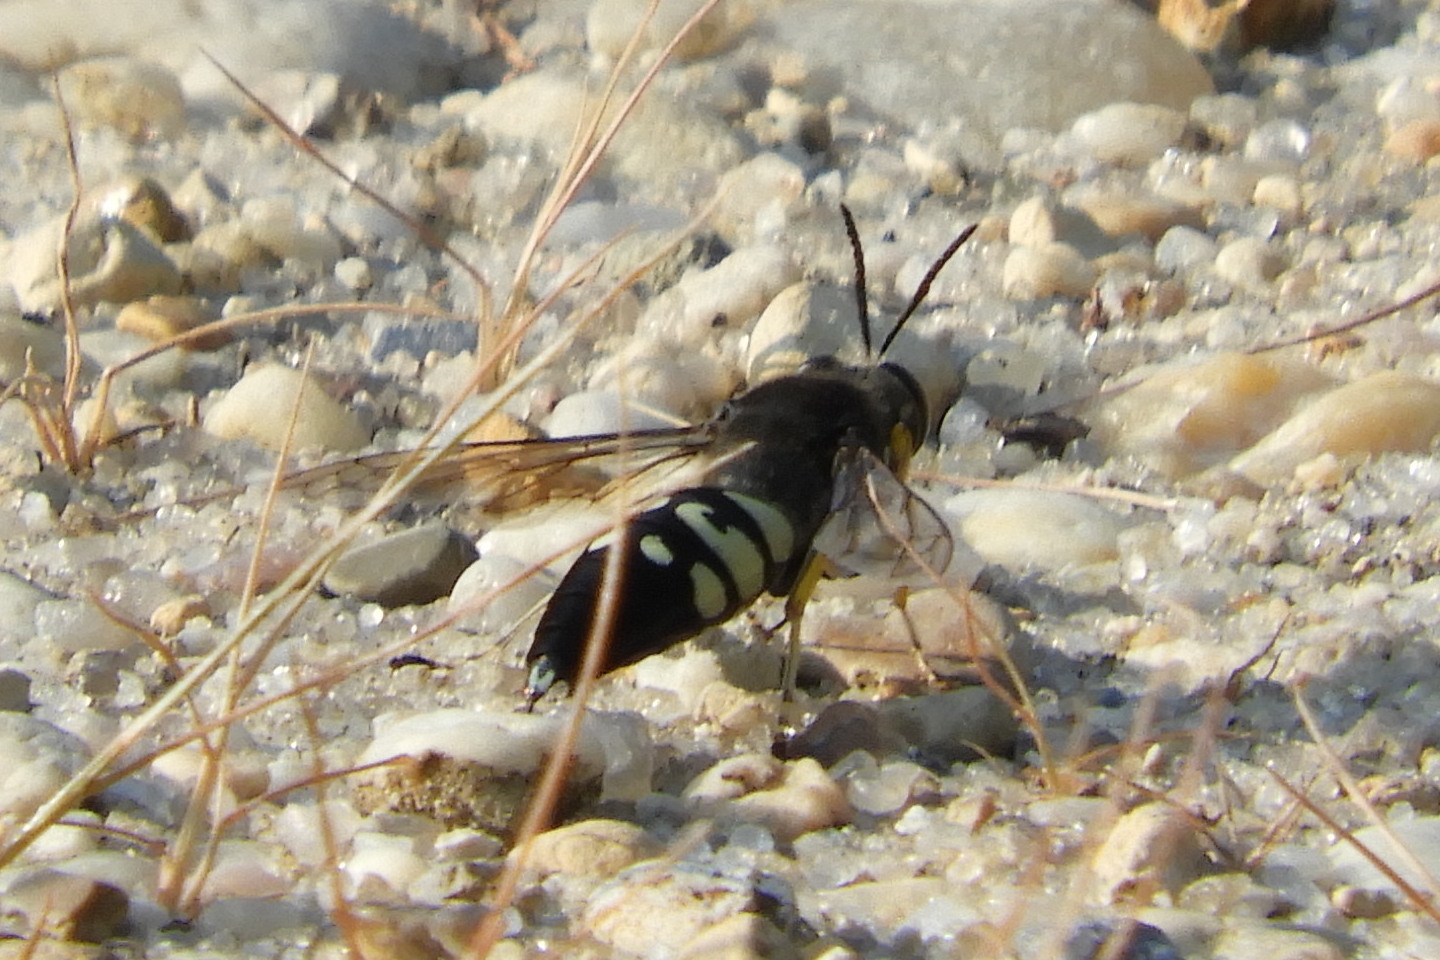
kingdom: Animalia
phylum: Arthropoda
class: Insecta
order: Hymenoptera
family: Crabronidae
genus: Stictia
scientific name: Stictia carolina
